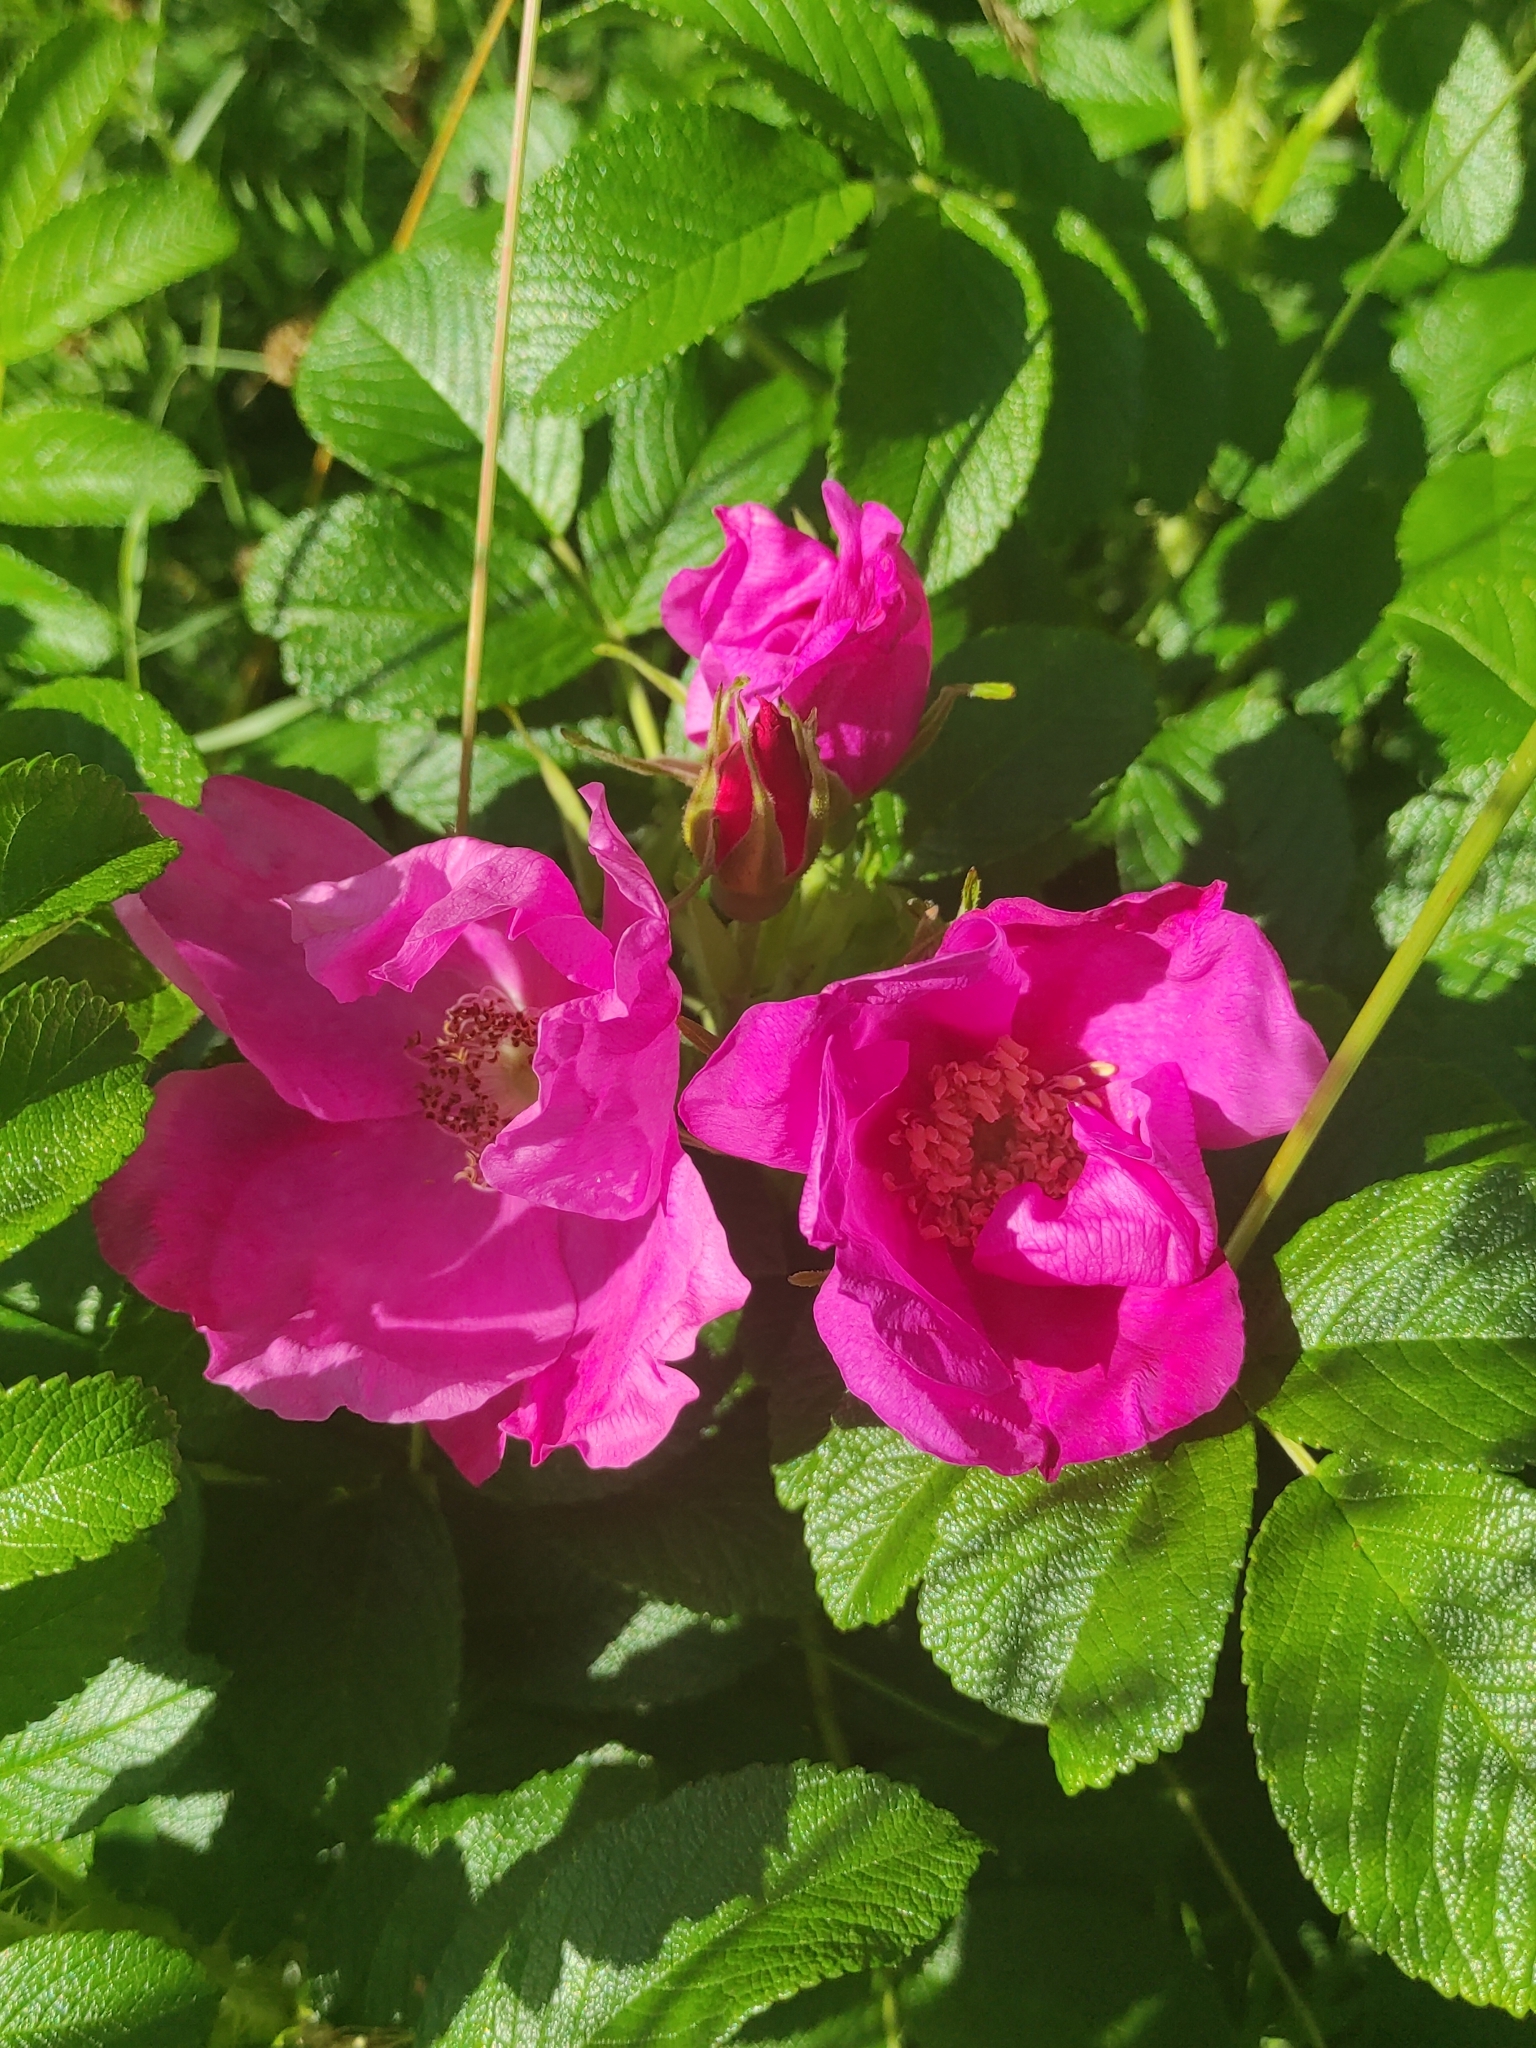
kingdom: Plantae
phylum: Tracheophyta
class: Magnoliopsida
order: Rosales
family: Rosaceae
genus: Rosa
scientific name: Rosa rugosa
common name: Japanese rose
